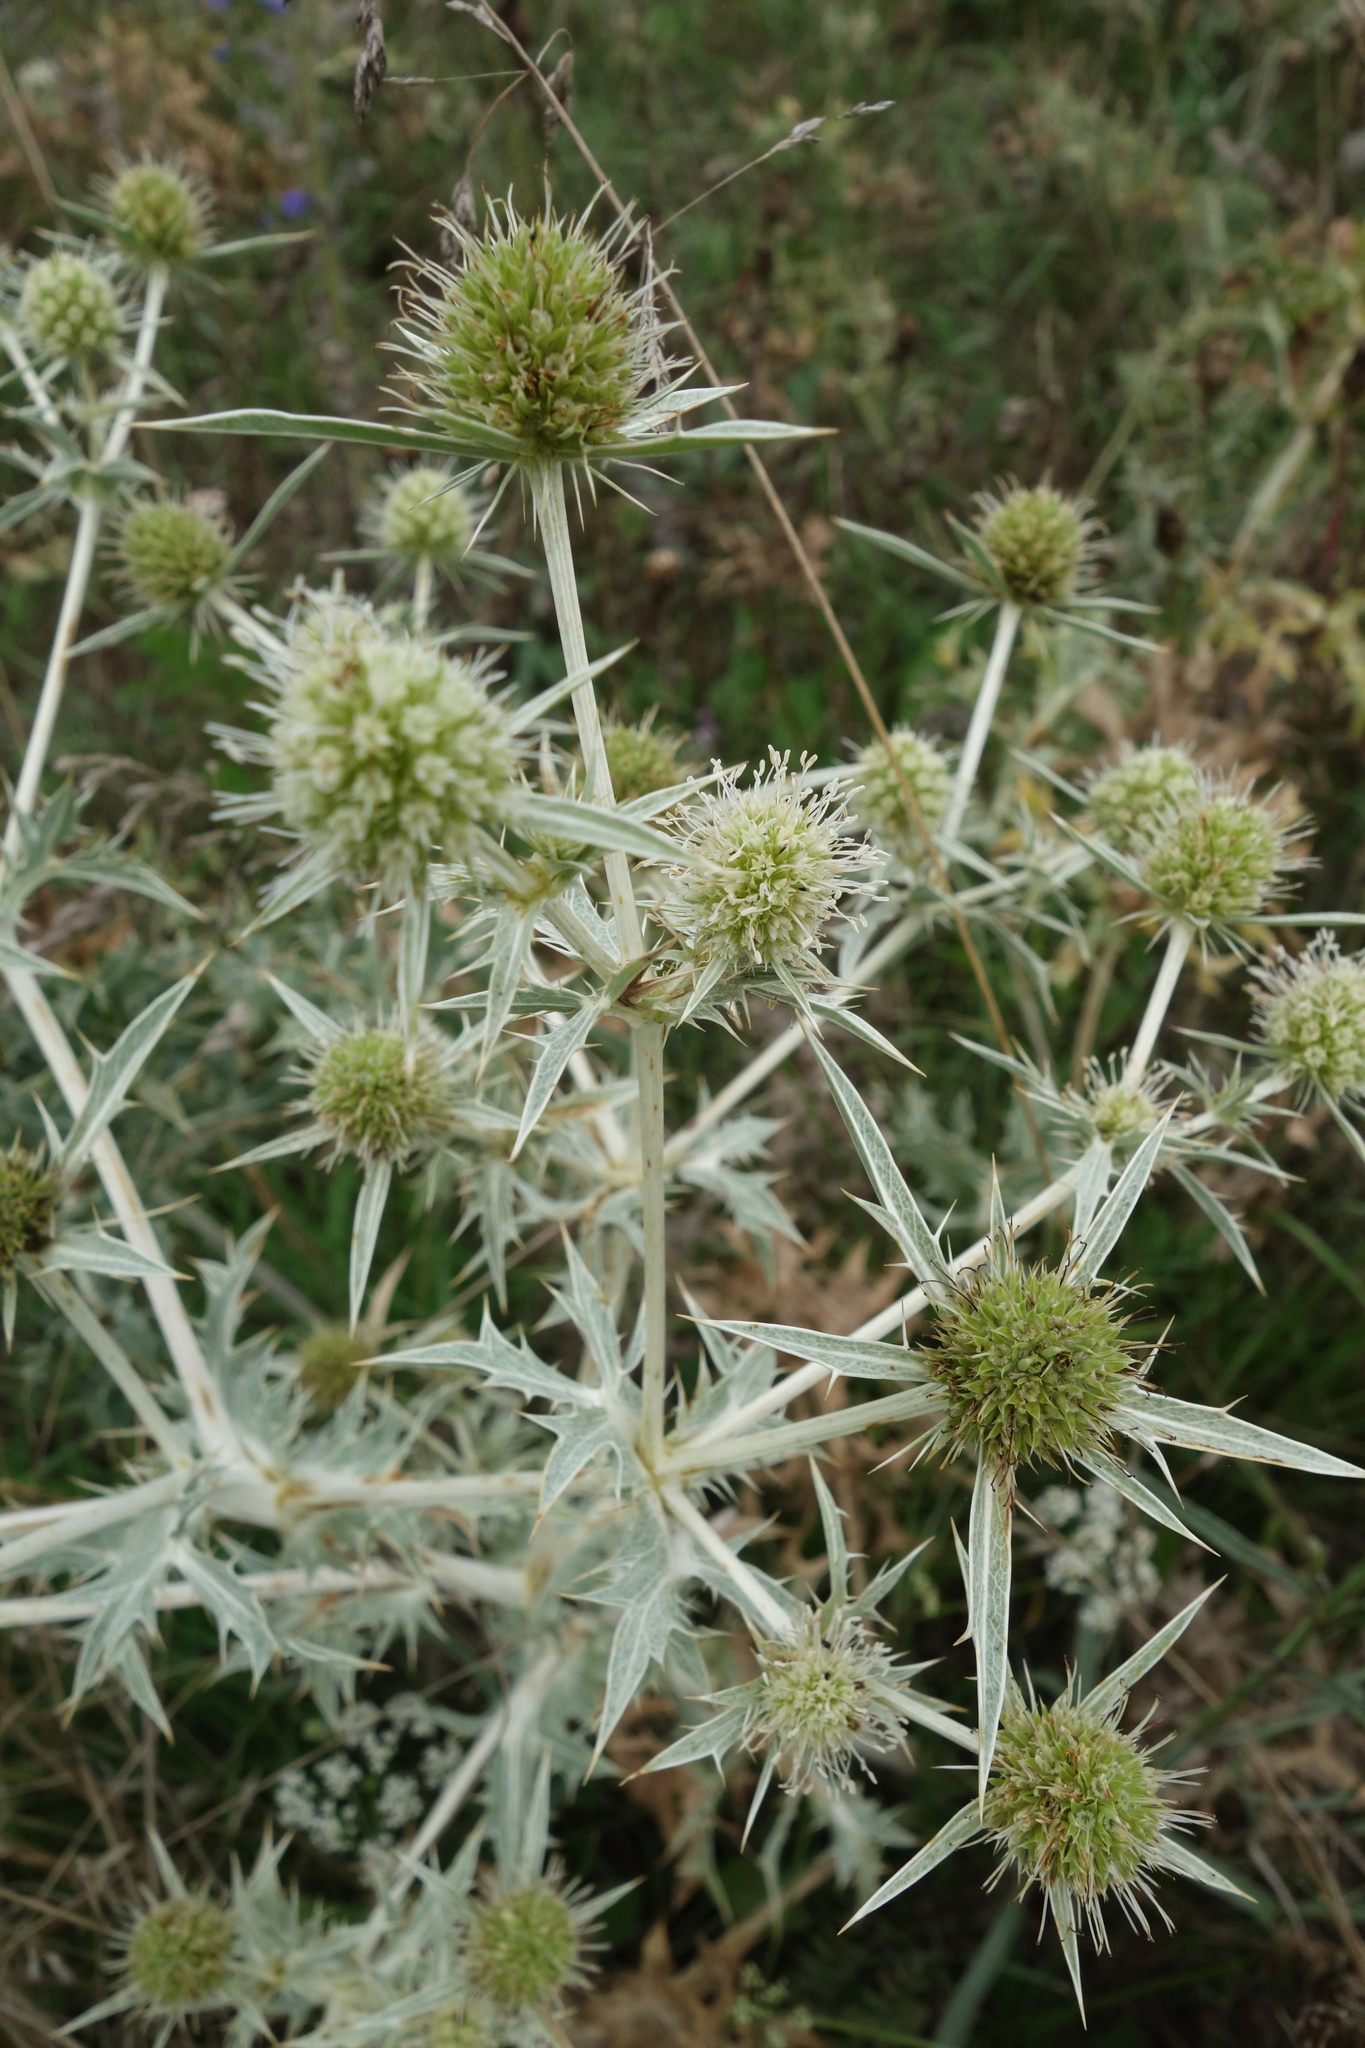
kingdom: Plantae
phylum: Tracheophyta
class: Magnoliopsida
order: Apiales
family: Apiaceae
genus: Eryngium
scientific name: Eryngium campestre
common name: Field eryngo
